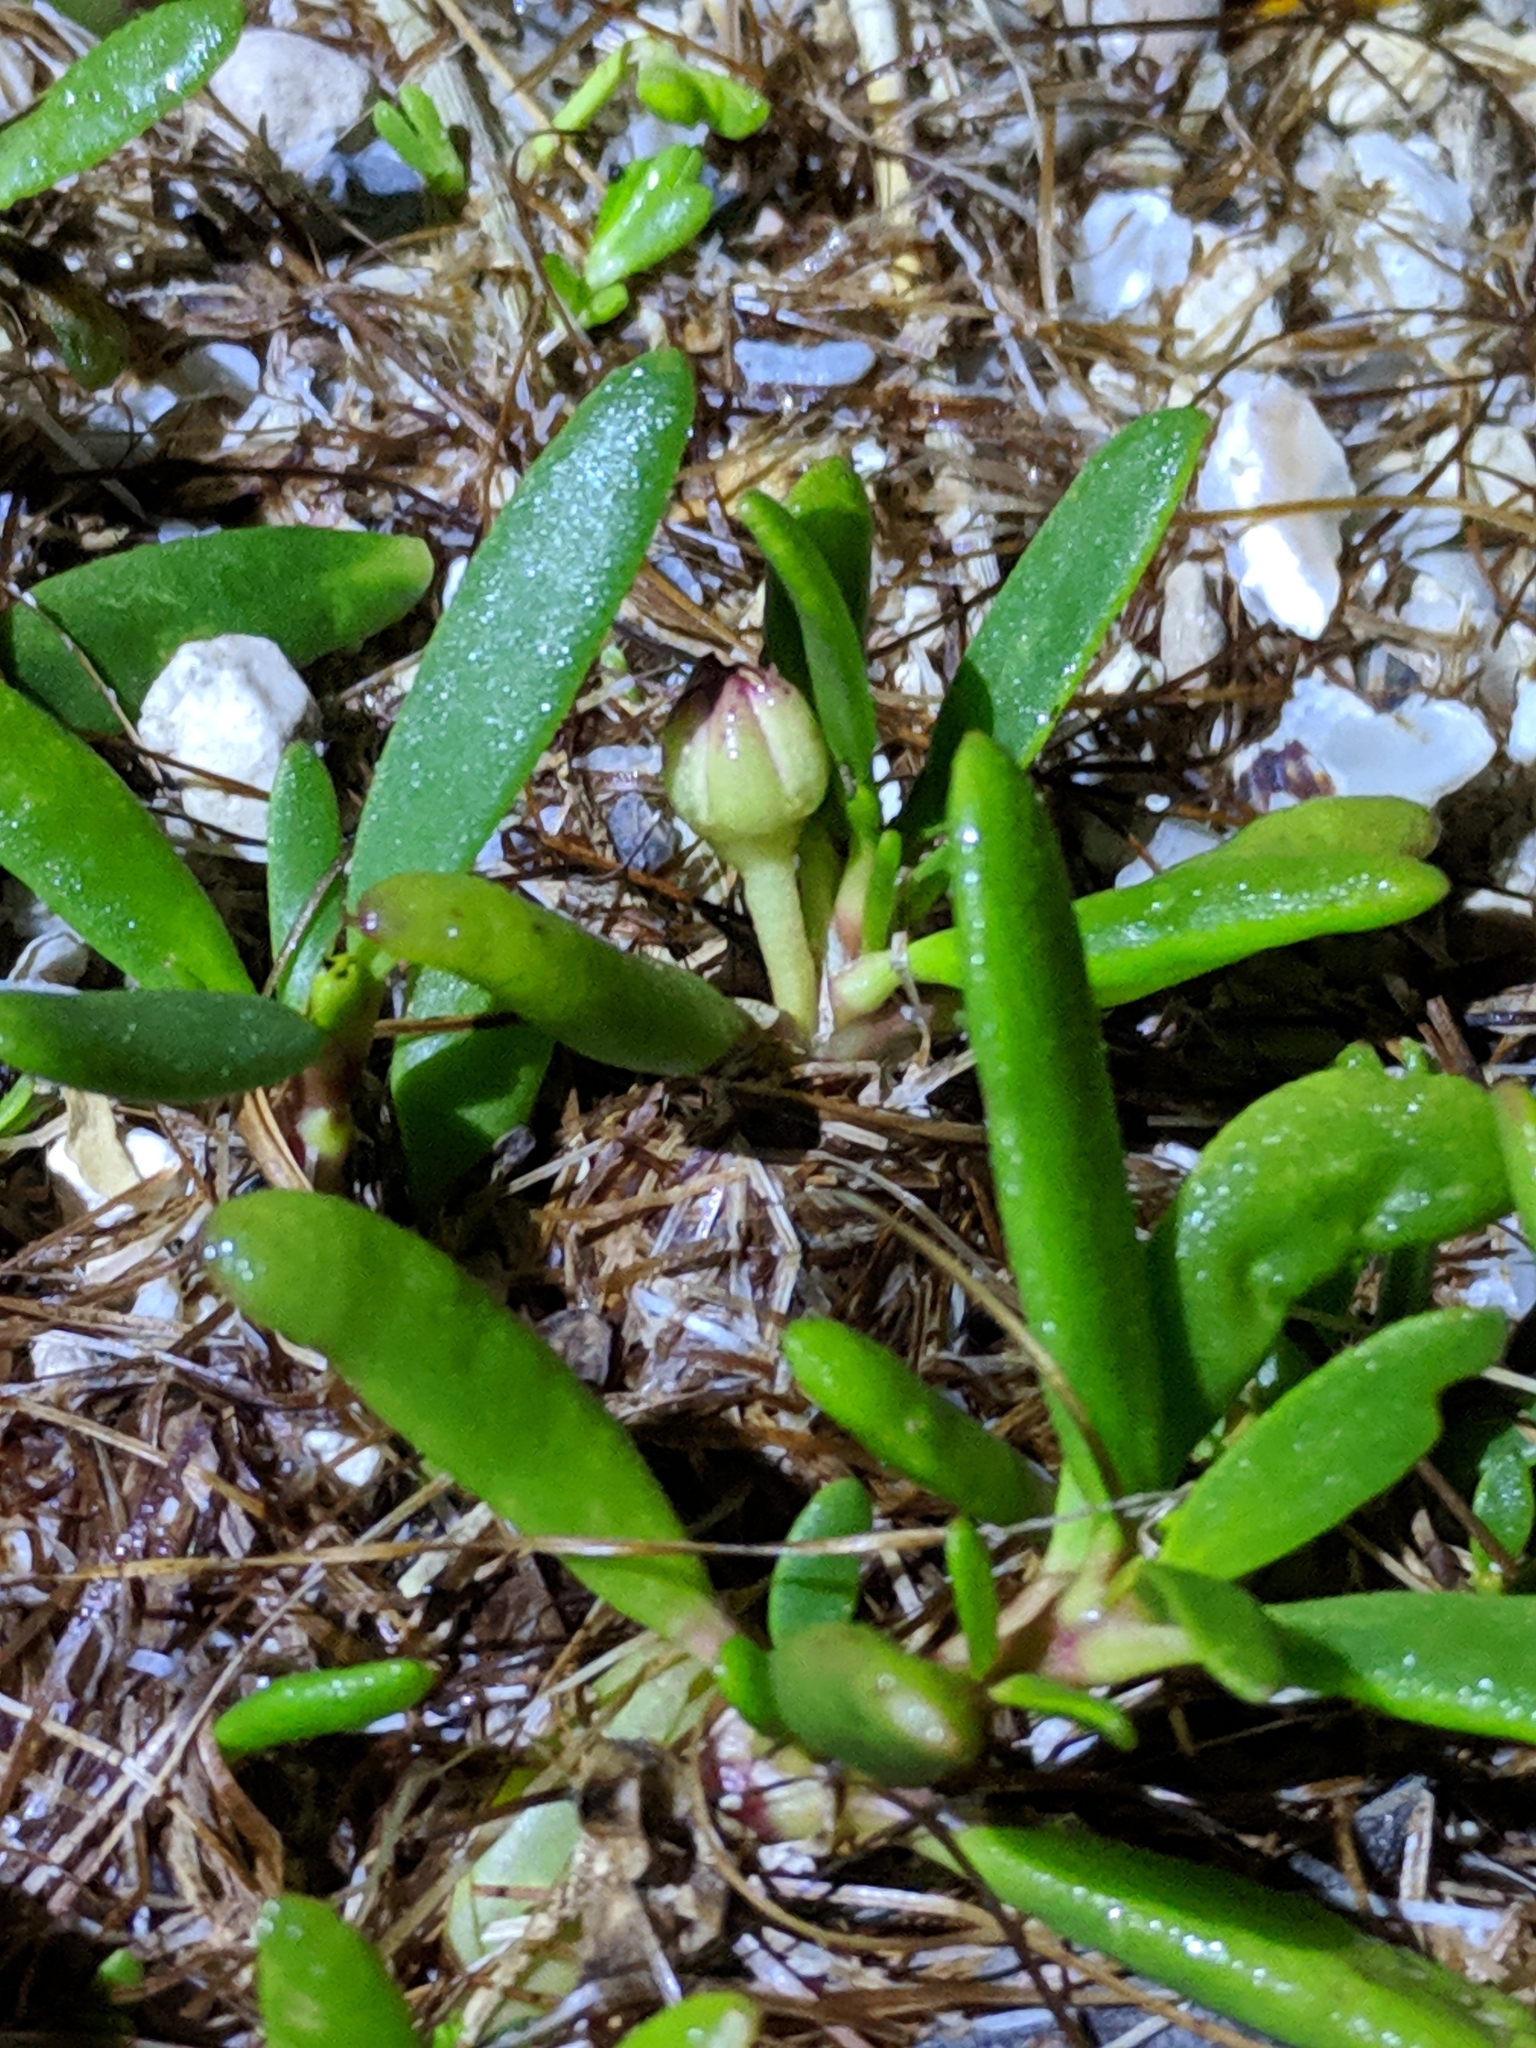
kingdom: Plantae
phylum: Tracheophyta
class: Magnoliopsida
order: Solanales
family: Solanaceae
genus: Lycium
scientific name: Lycium carolinianum
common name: Christmasberry
